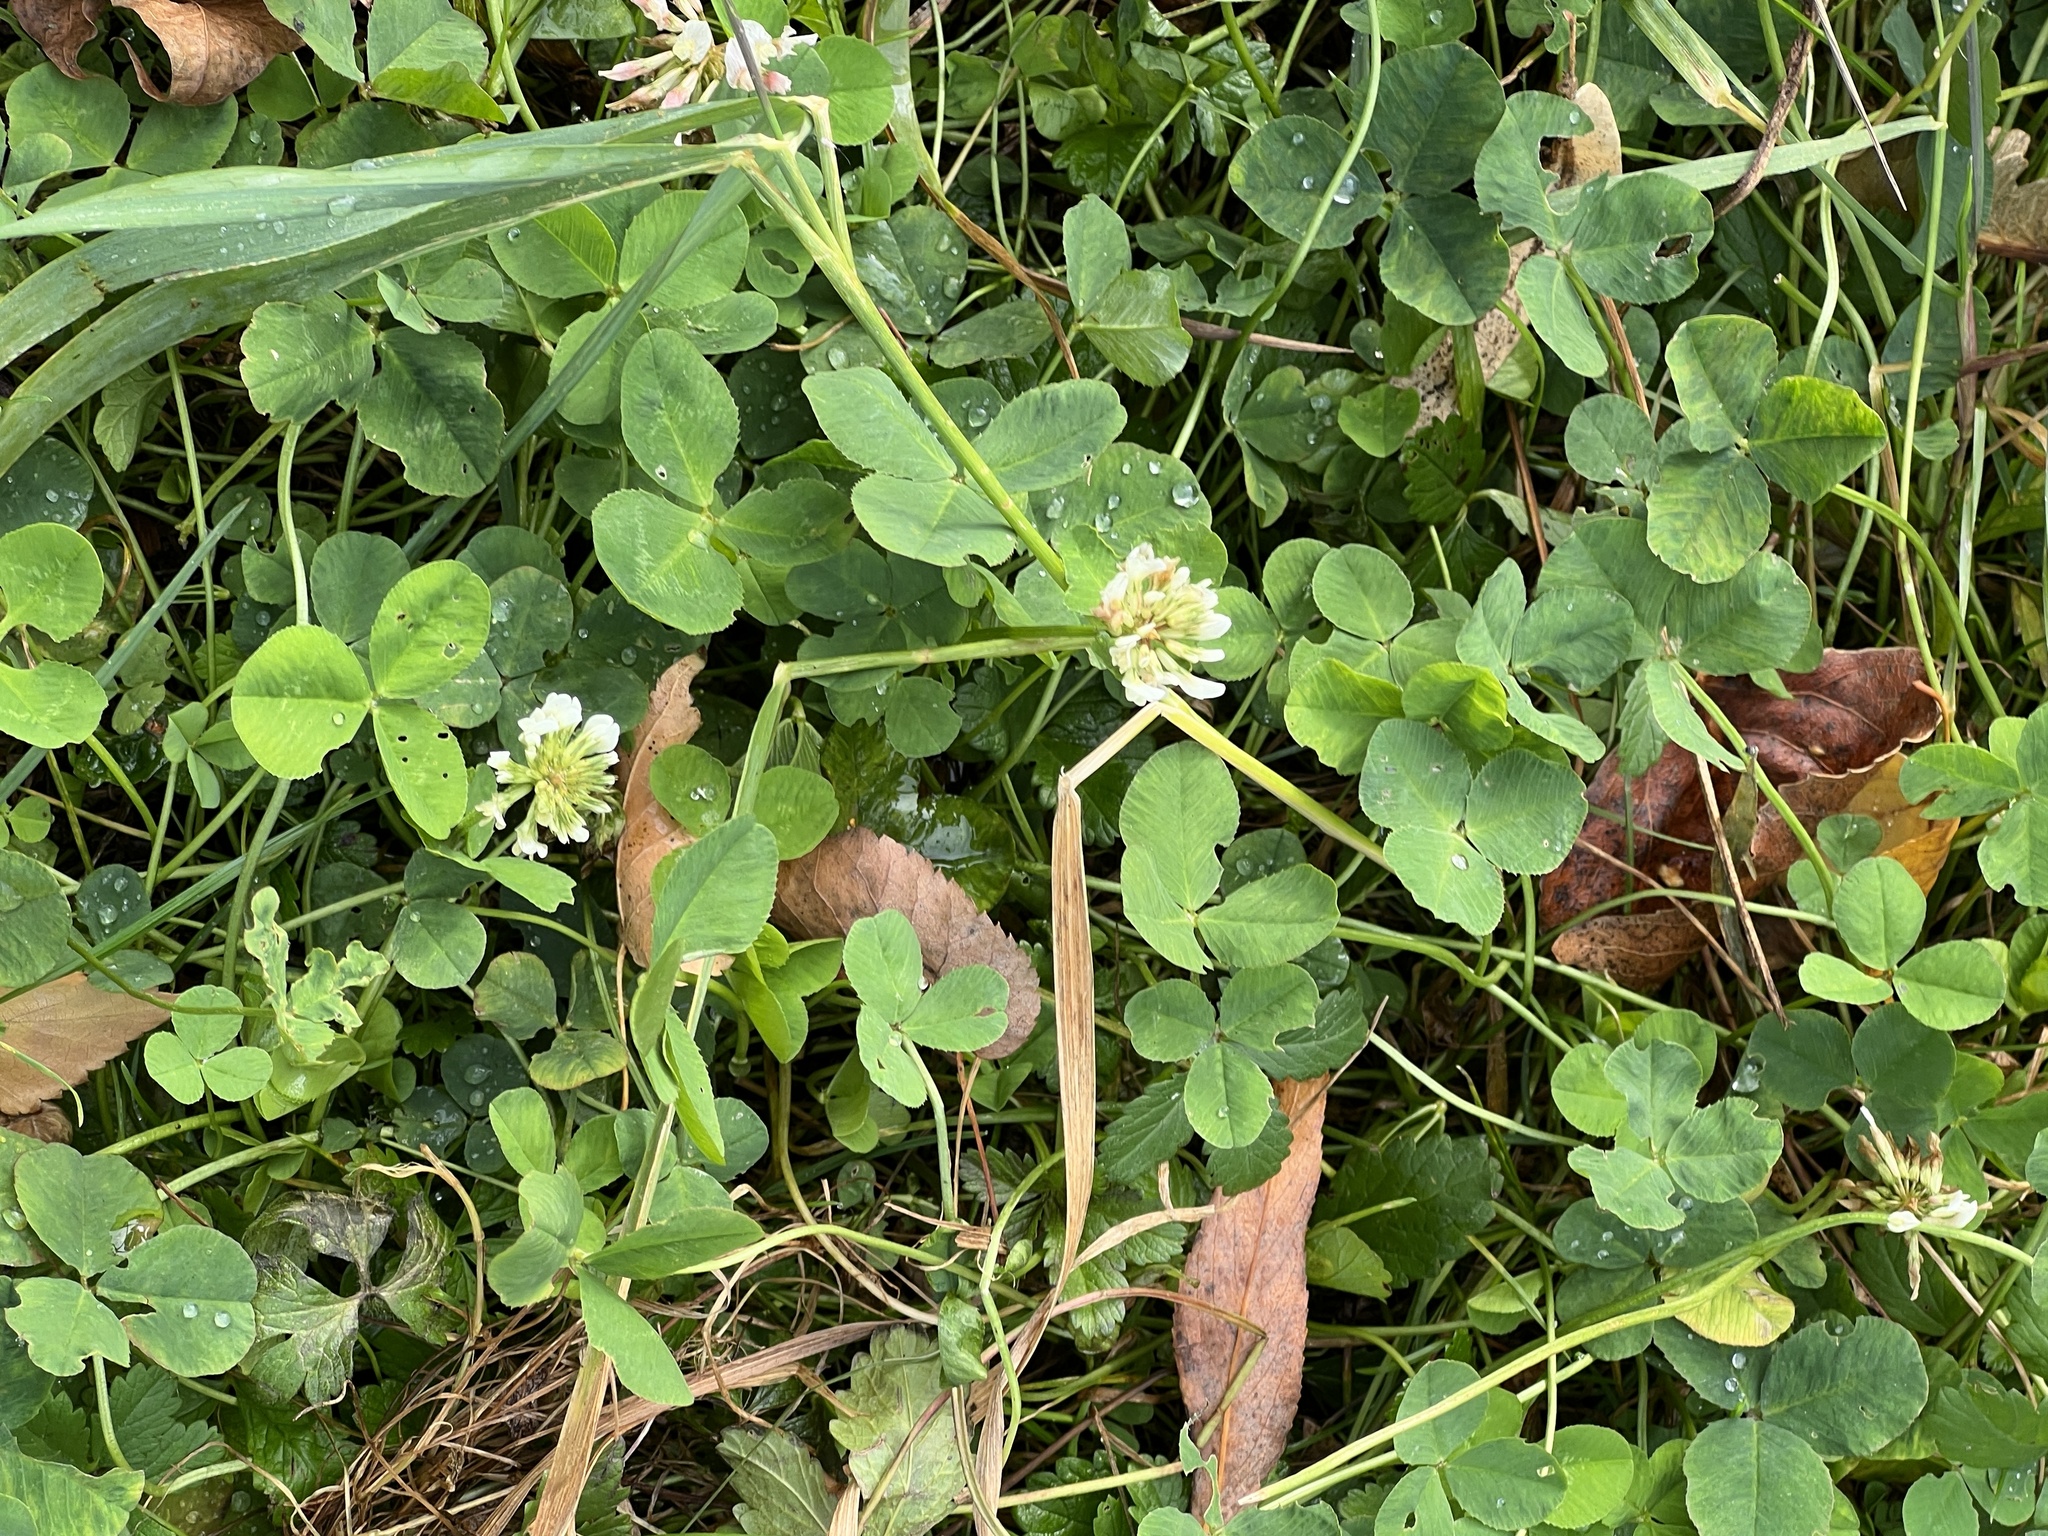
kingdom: Plantae
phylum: Tracheophyta
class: Magnoliopsida
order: Fabales
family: Fabaceae
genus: Trifolium
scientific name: Trifolium repens
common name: White clover
